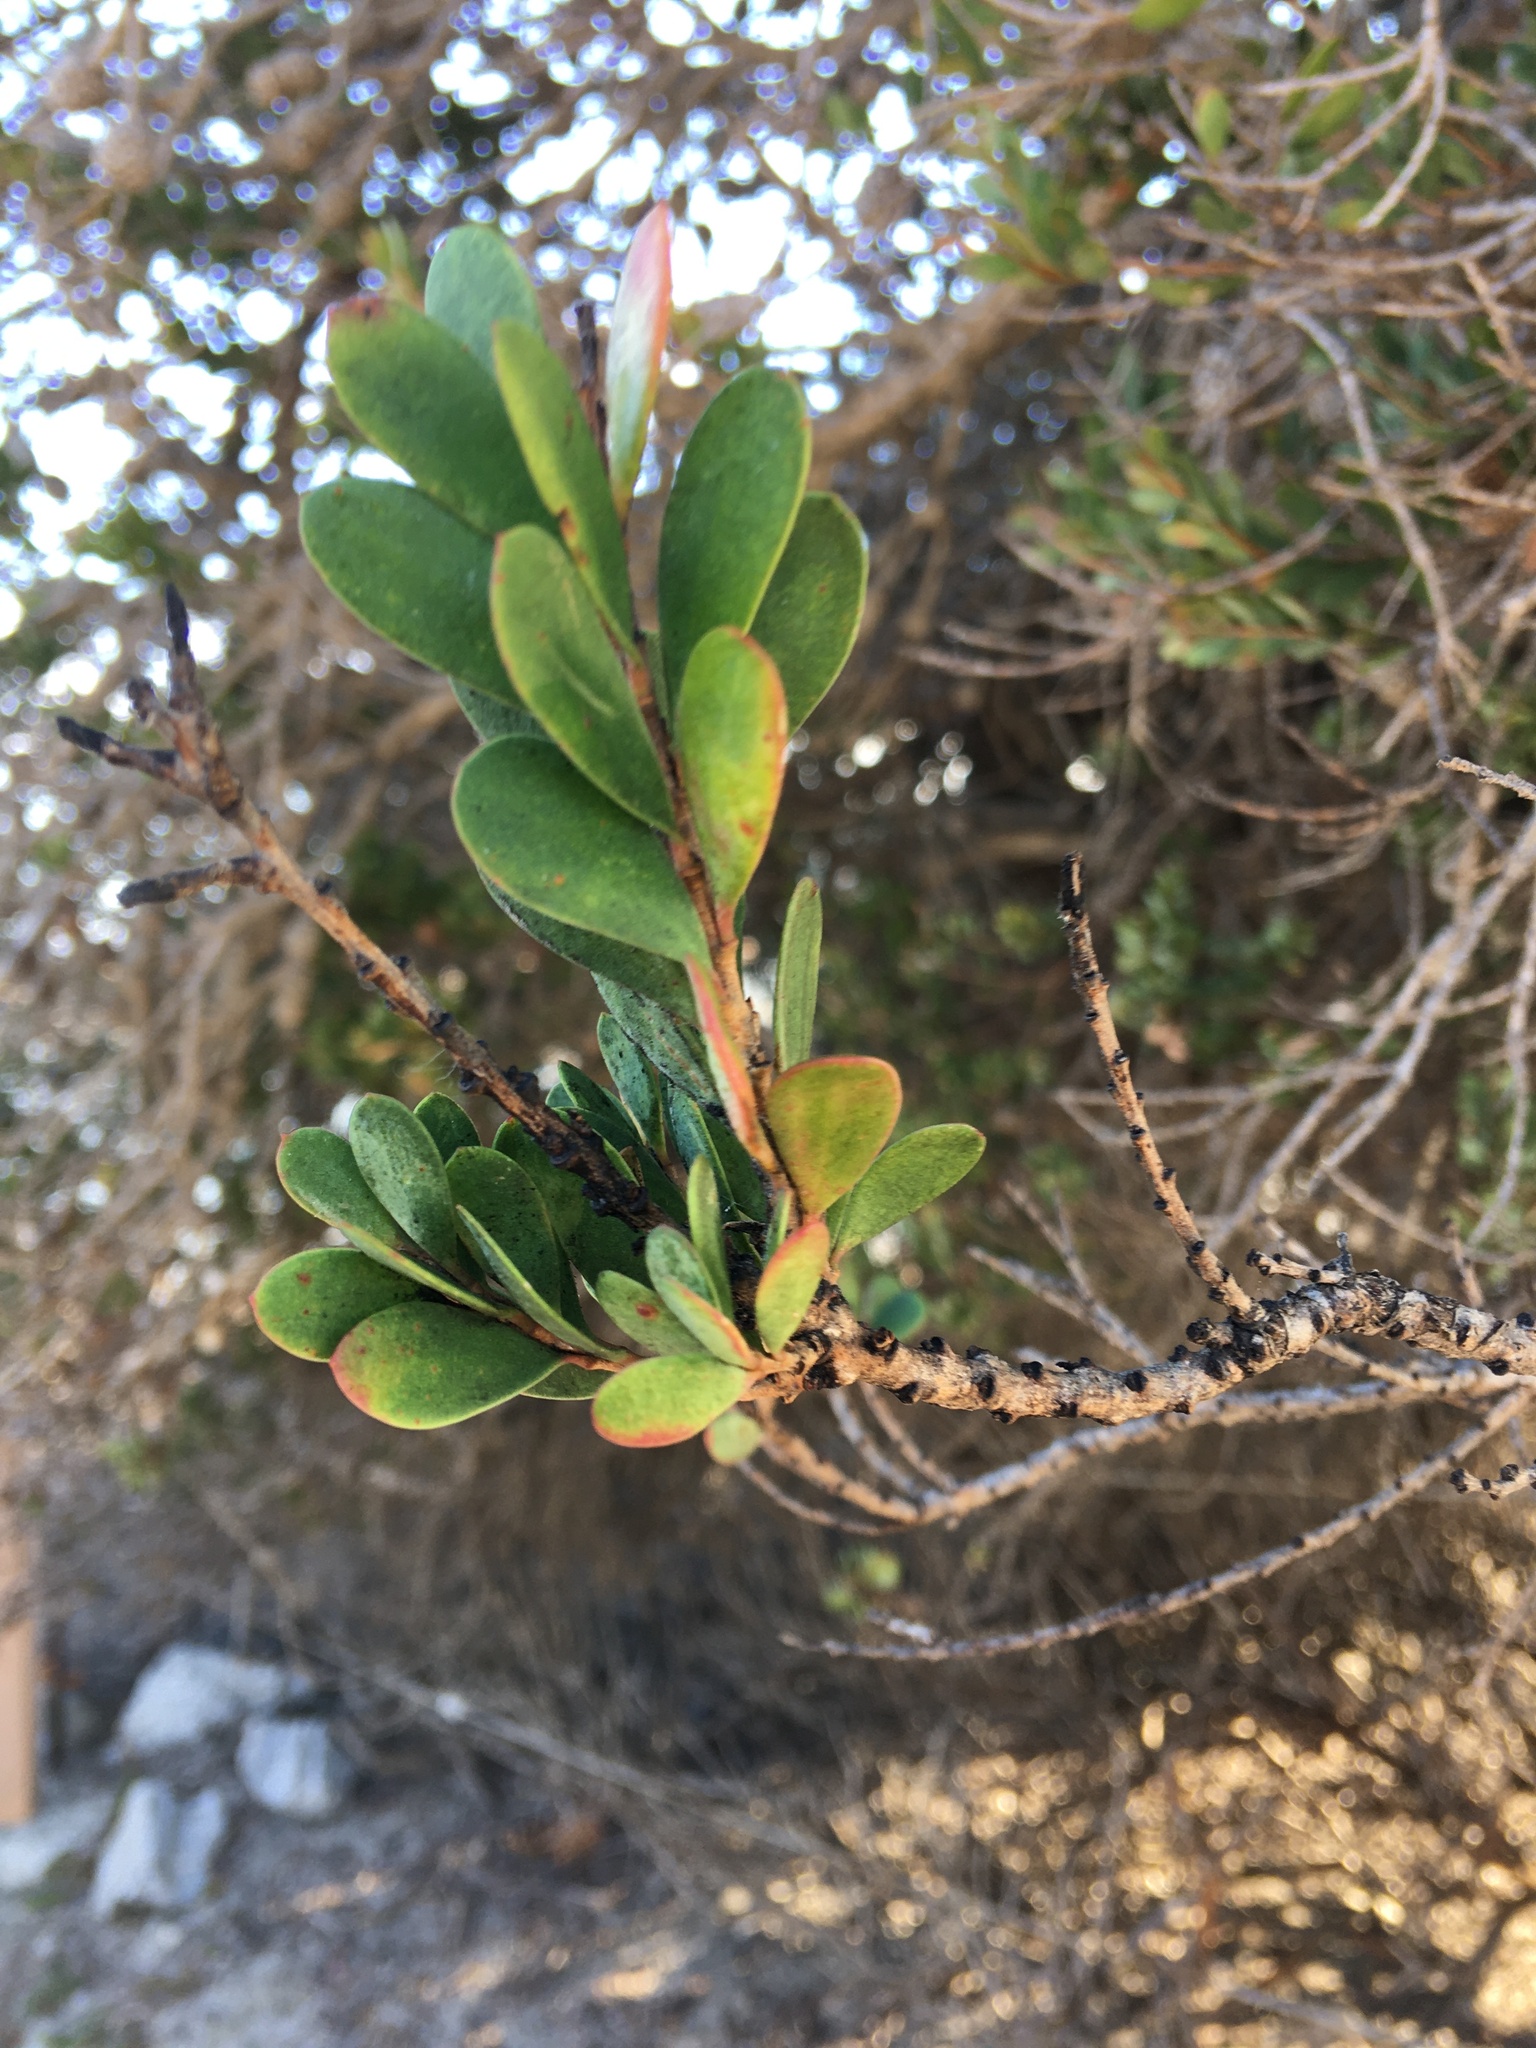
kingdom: Plantae
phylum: Tracheophyta
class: Magnoliopsida
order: Myrtales
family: Myrtaceae
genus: Melaleuca
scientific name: Melaleuca nesophila
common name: Mauve honey myrtle
